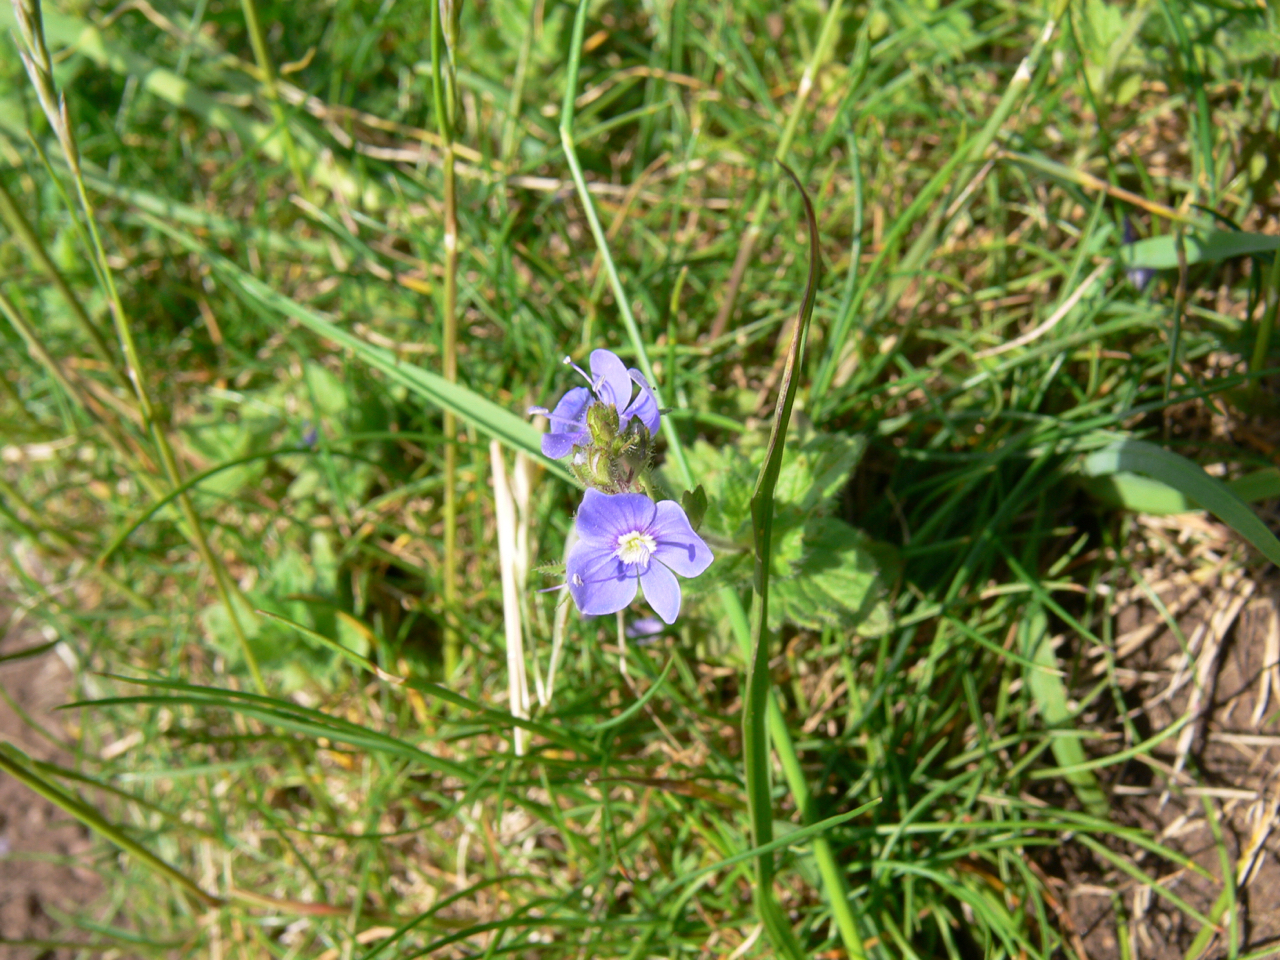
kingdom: Plantae
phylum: Tracheophyta
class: Magnoliopsida
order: Lamiales
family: Plantaginaceae
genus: Veronica
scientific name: Veronica chamaedrys
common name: Germander speedwell
